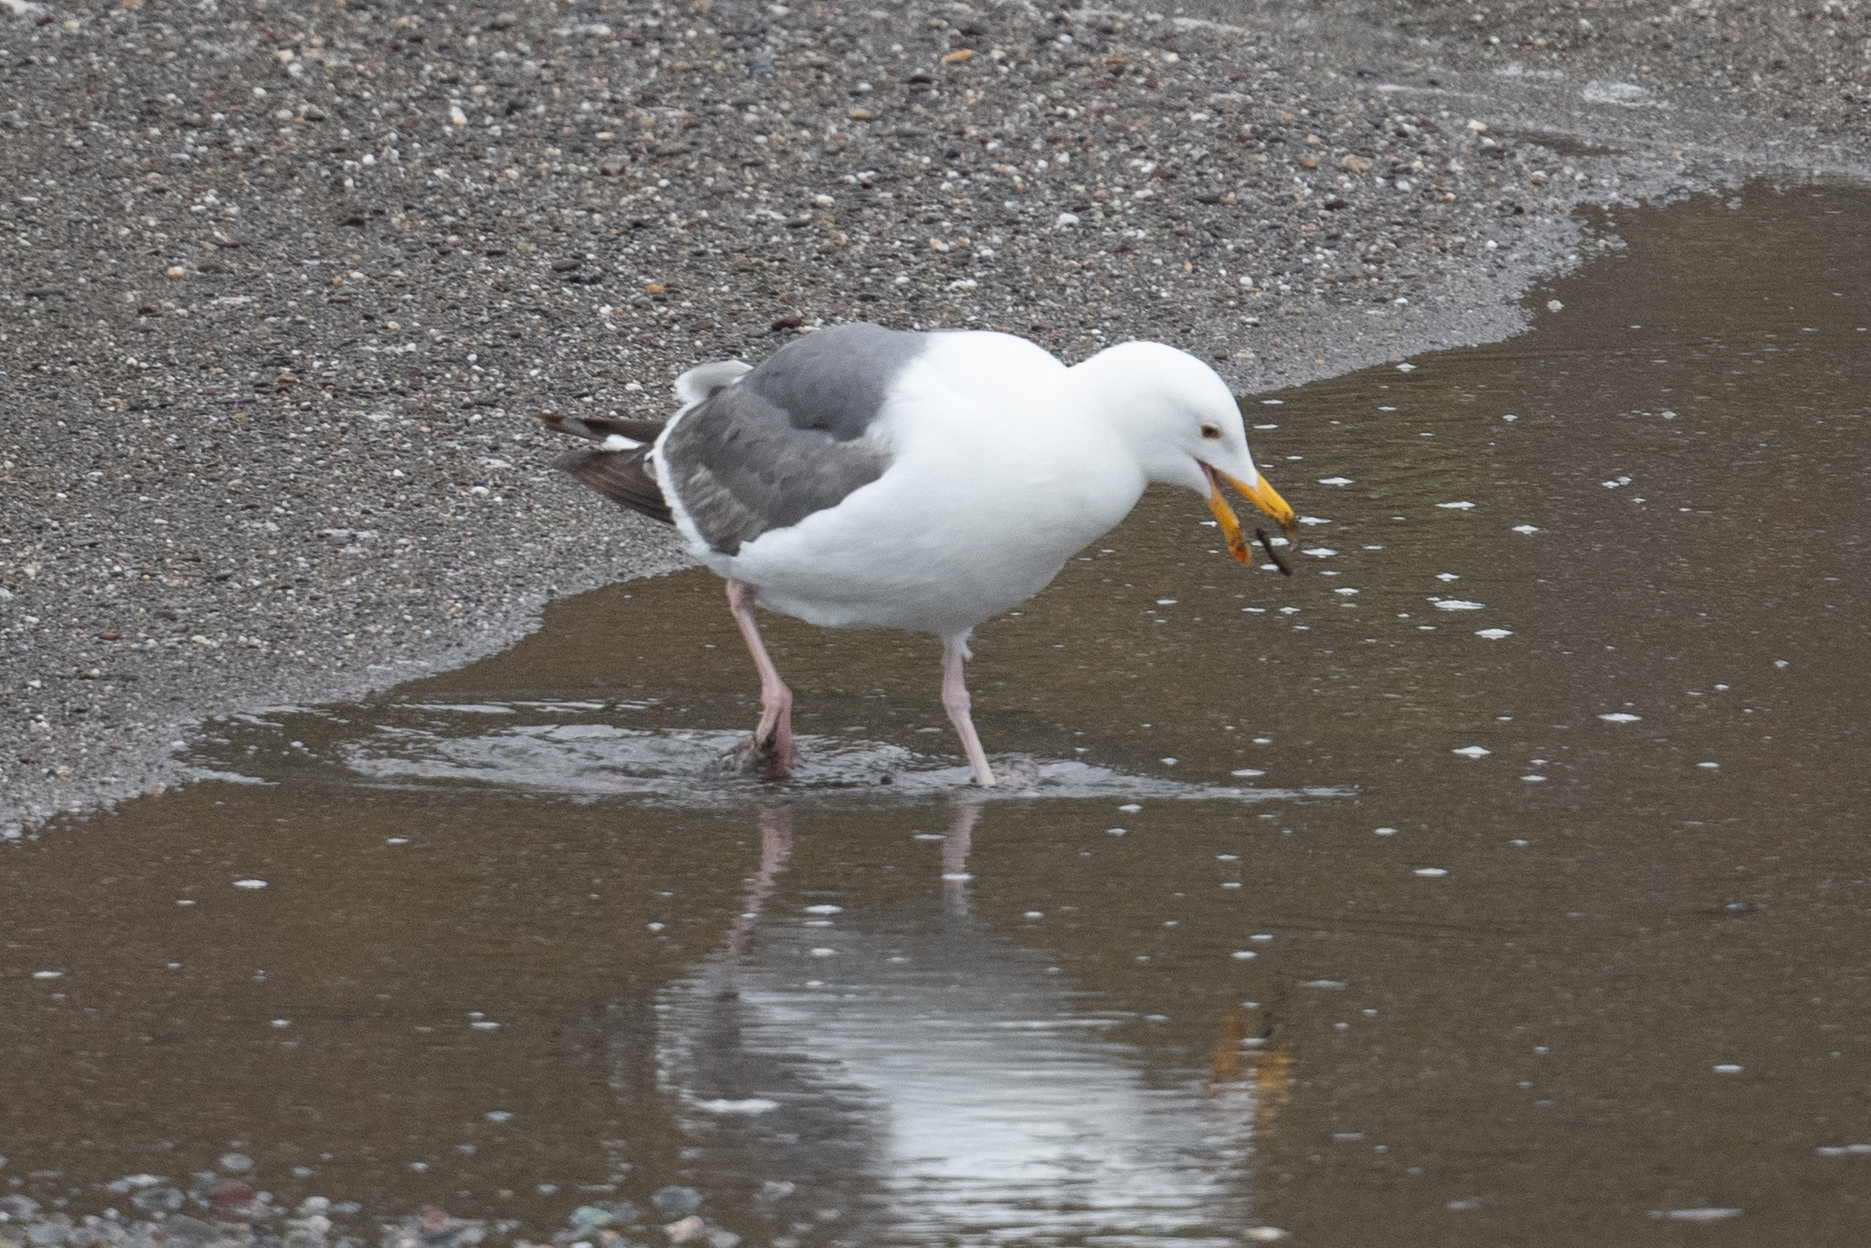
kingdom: Animalia
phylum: Chordata
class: Aves
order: Charadriiformes
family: Laridae
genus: Larus
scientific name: Larus occidentalis
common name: Western gull
